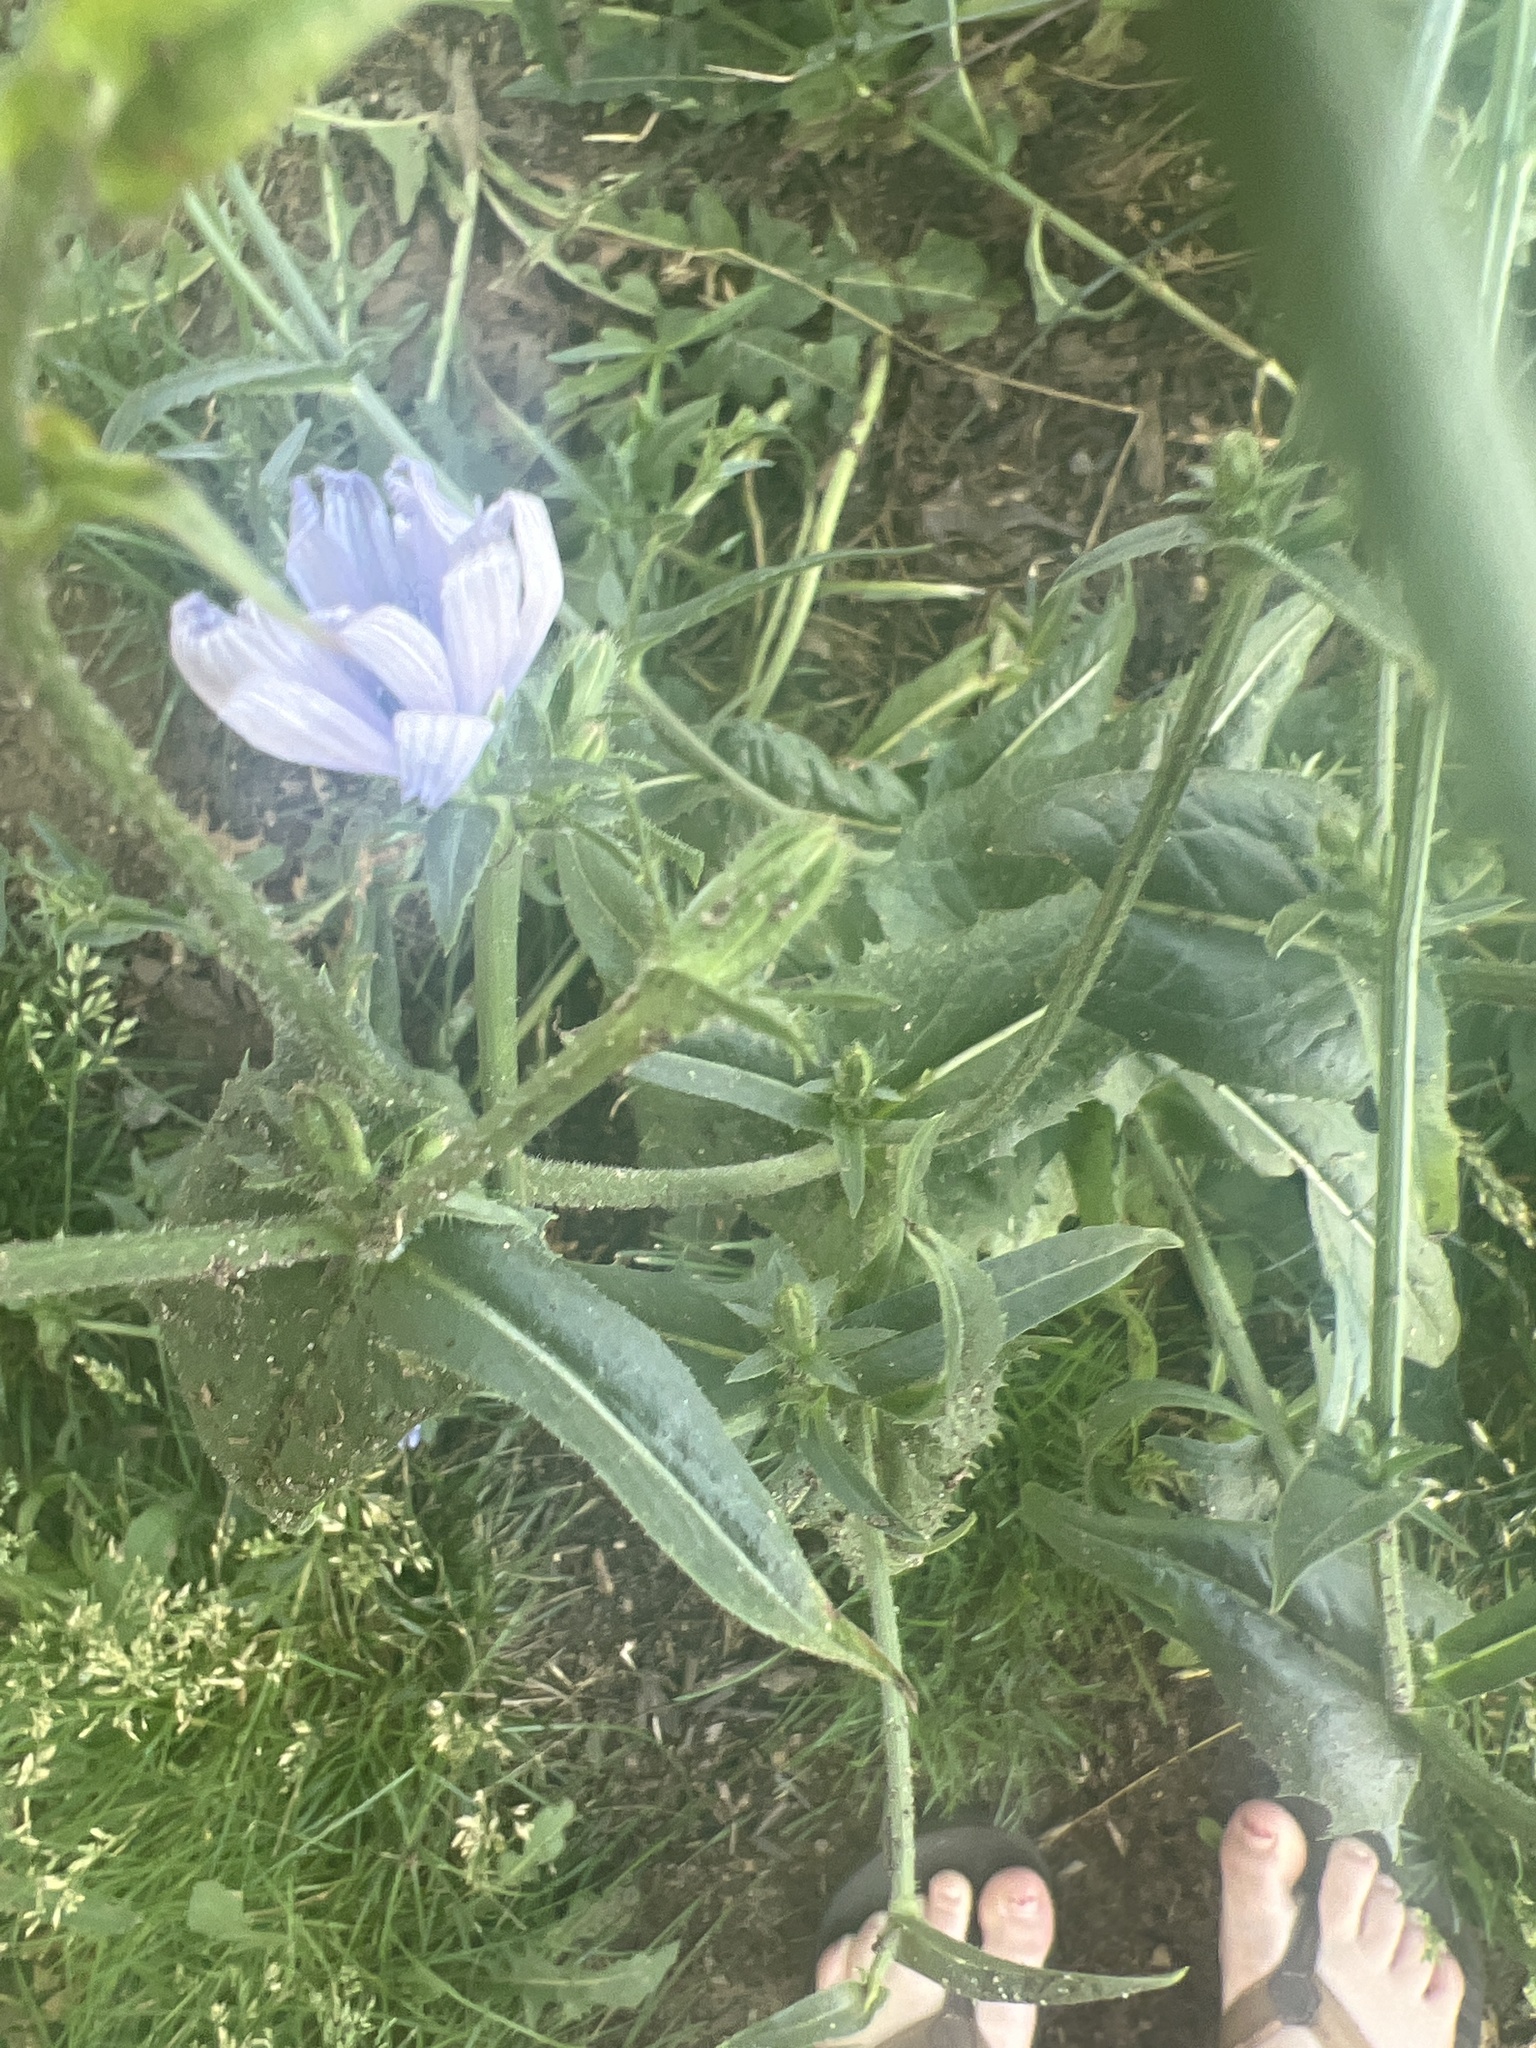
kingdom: Plantae
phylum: Tracheophyta
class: Magnoliopsida
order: Asterales
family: Asteraceae
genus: Cichorium
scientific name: Cichorium intybus
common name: Chicory
